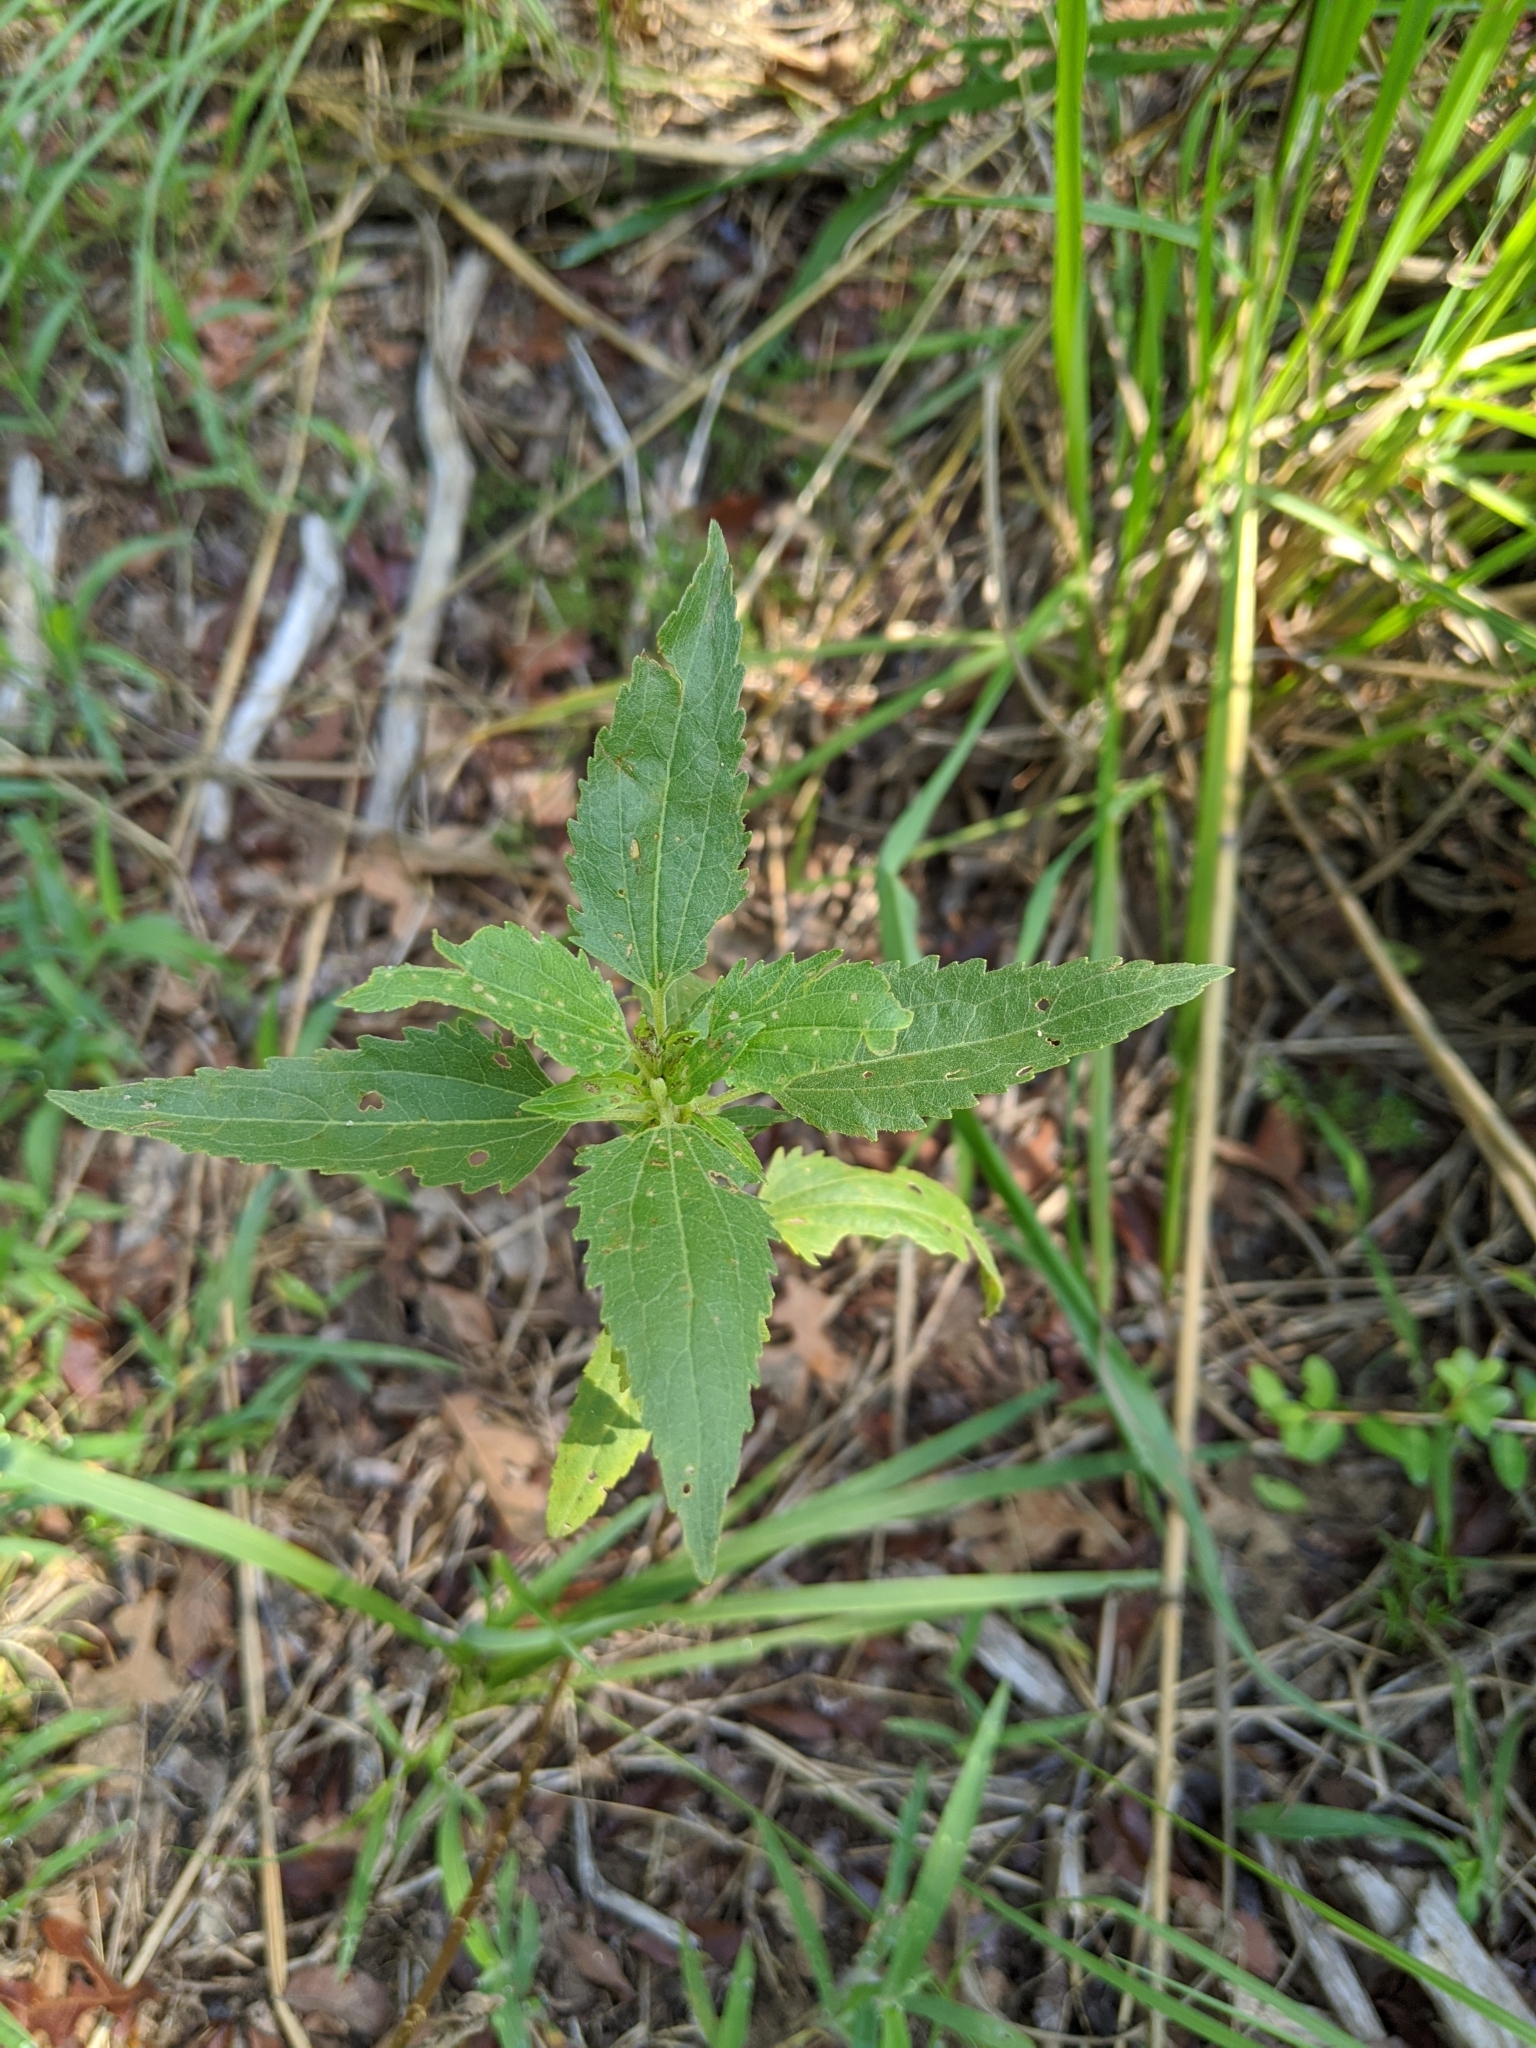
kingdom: Plantae
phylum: Tracheophyta
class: Magnoliopsida
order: Asterales
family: Asteraceae
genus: Eupatorium
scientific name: Eupatorium serotinum
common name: Late boneset
